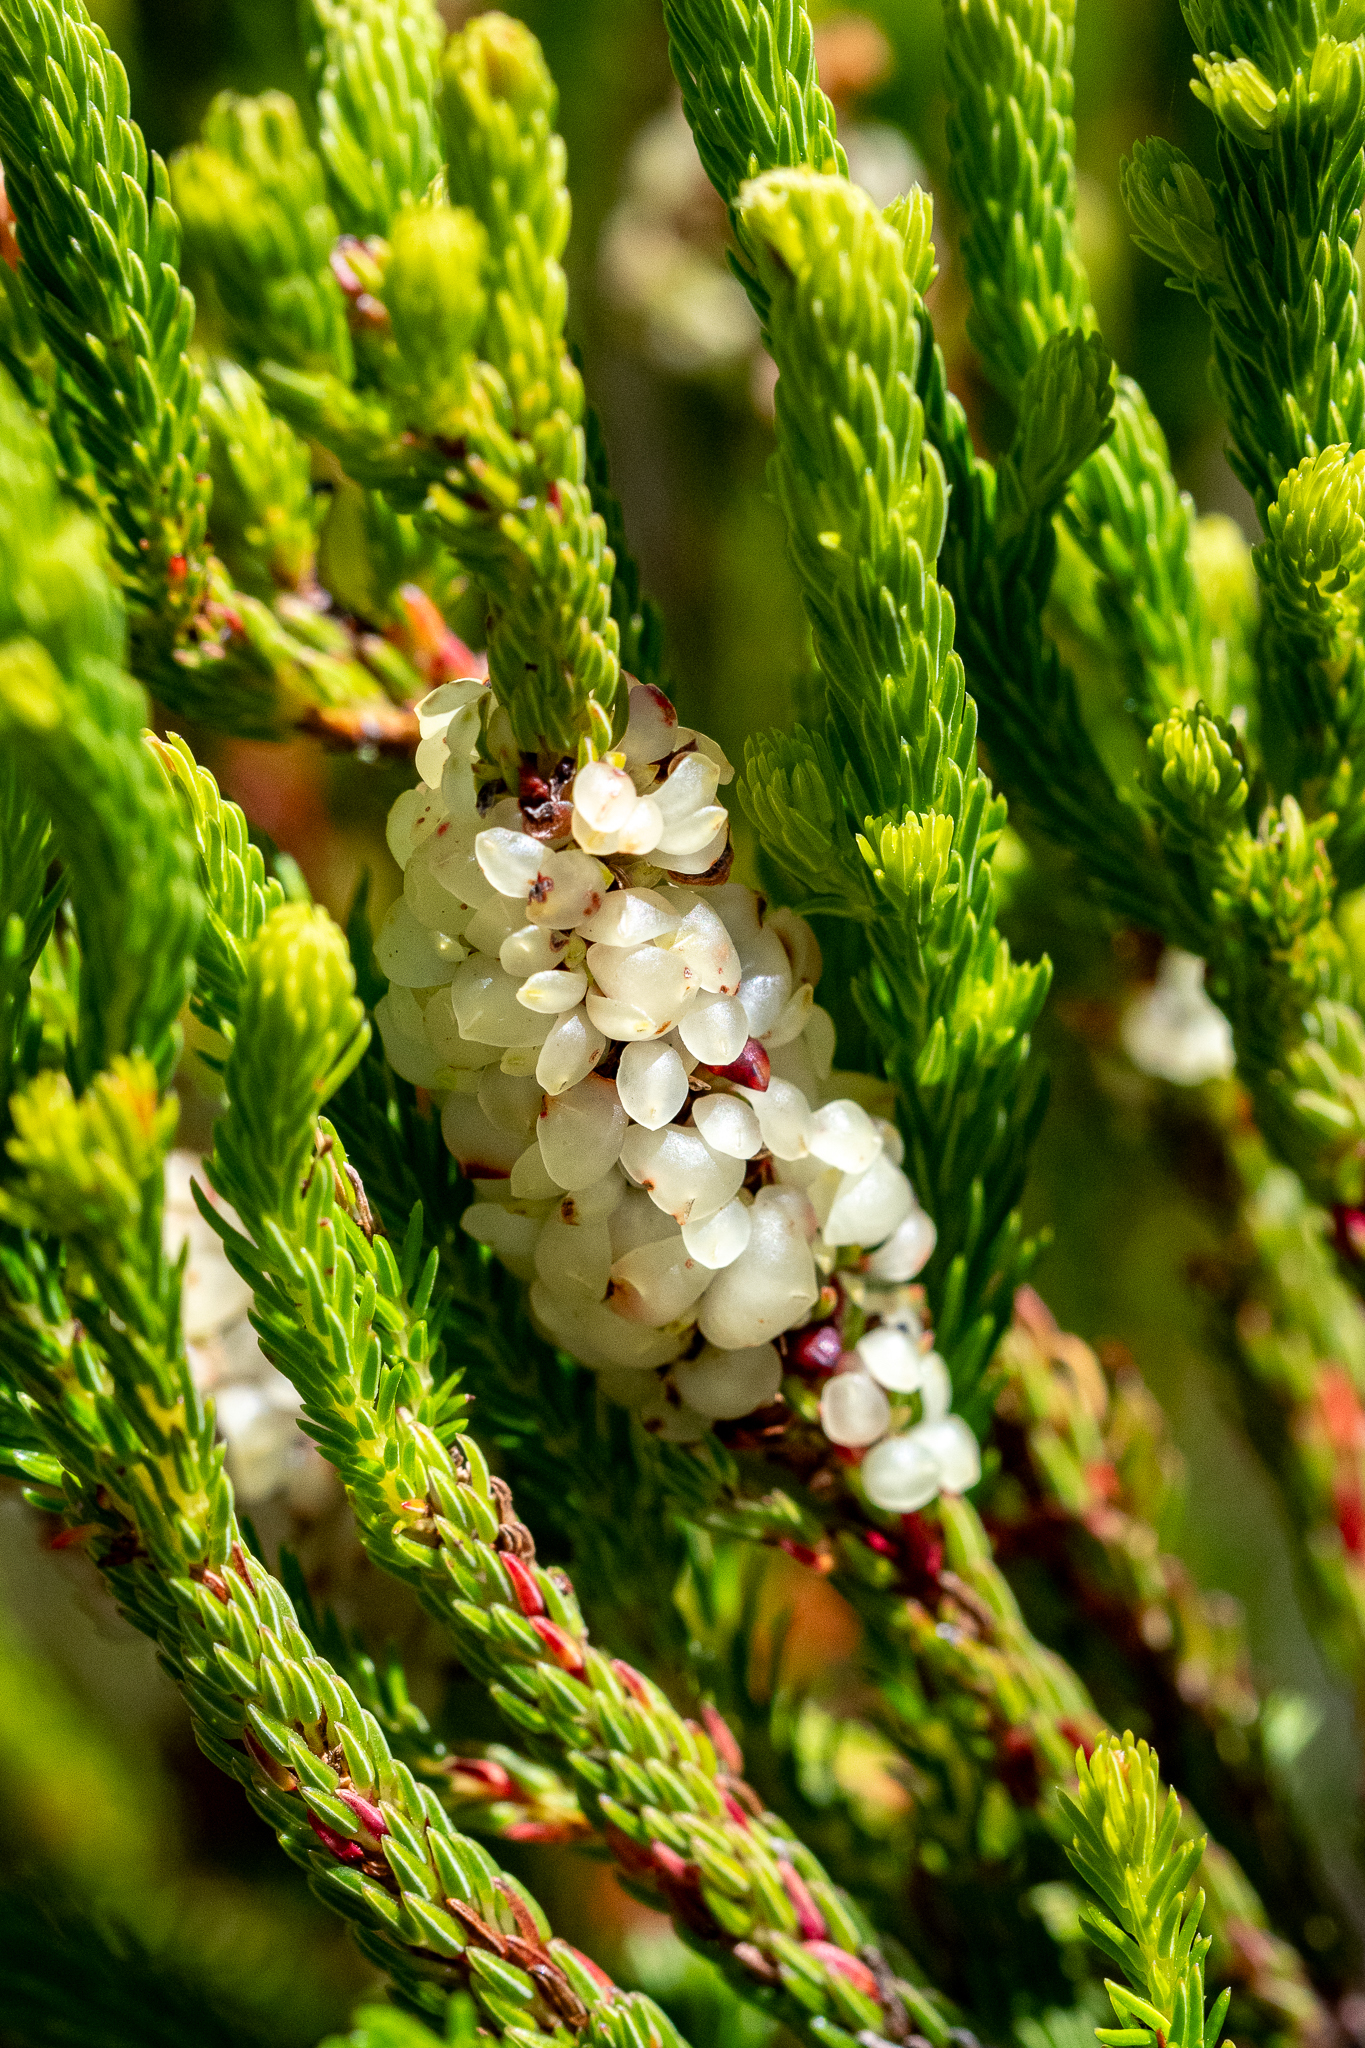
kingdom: Plantae
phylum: Tracheophyta
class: Magnoliopsida
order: Ericales
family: Ericaceae
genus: Erica
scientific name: Erica sessiliflora
